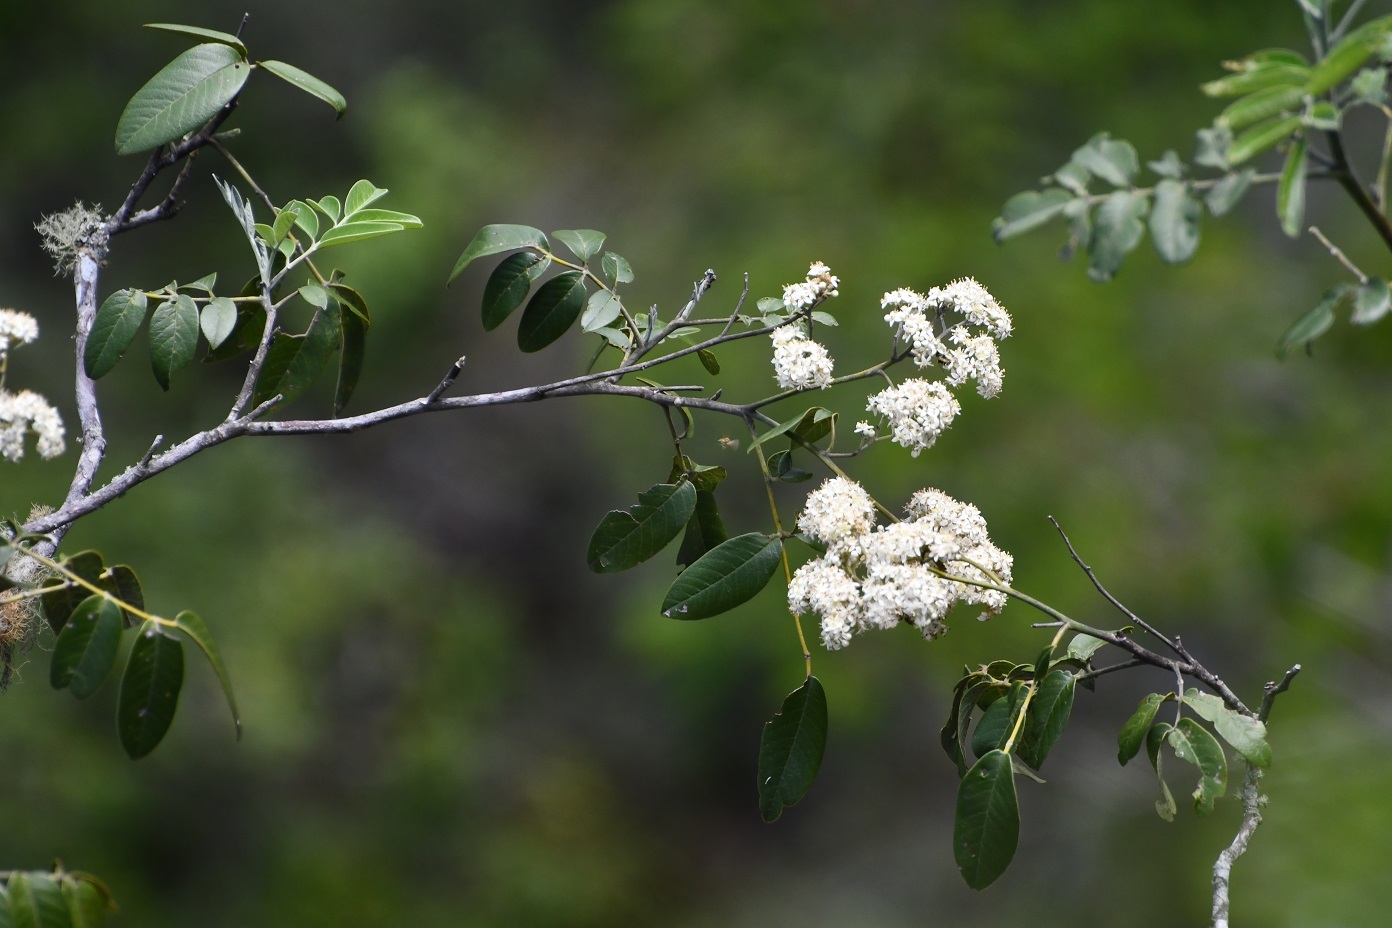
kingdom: Plantae
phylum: Tracheophyta
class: Magnoliopsida
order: Sapindales
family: Anacardiaceae
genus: Rhus
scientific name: Rhus vestita
